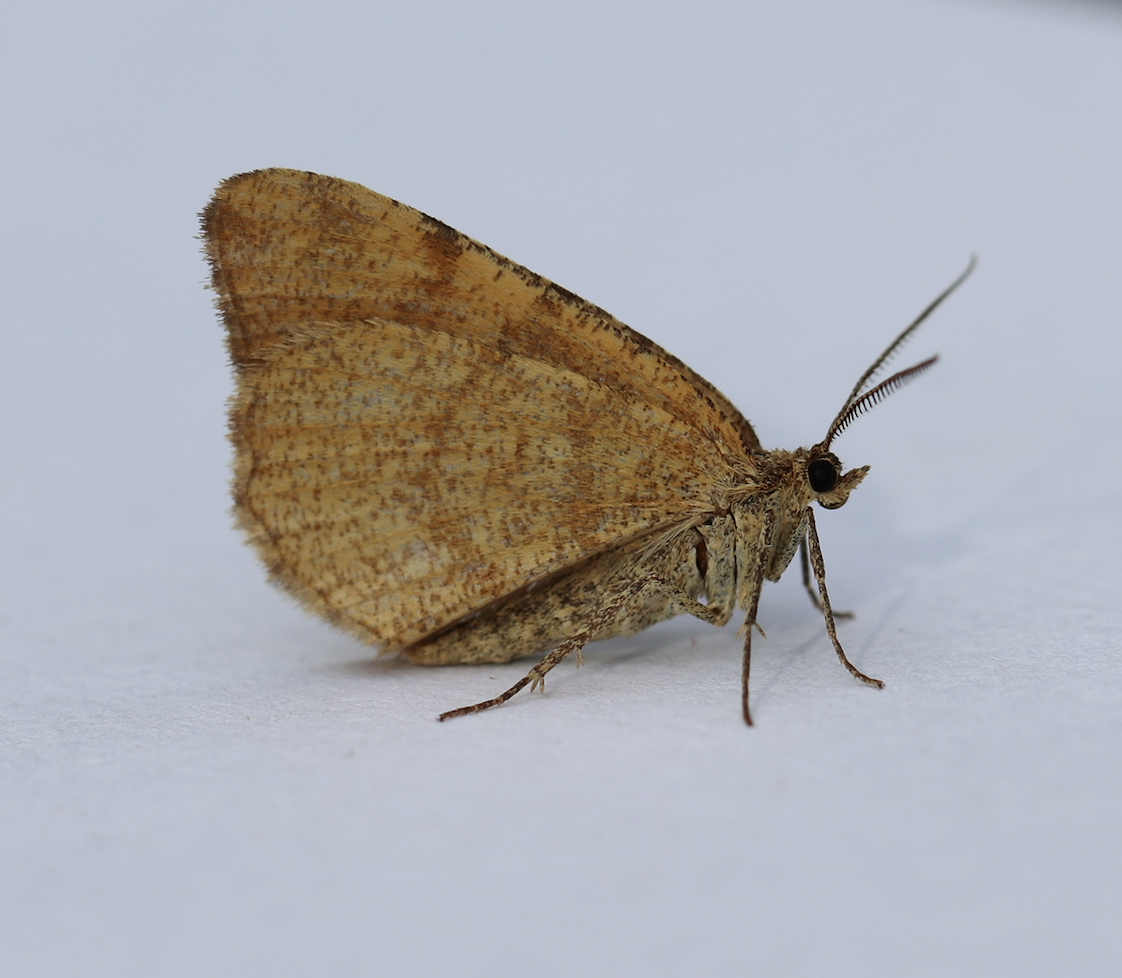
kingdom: Animalia
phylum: Arthropoda
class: Insecta
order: Lepidoptera
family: Geometridae
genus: Macaria
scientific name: Macaria brunneata
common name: Rannoch looper
